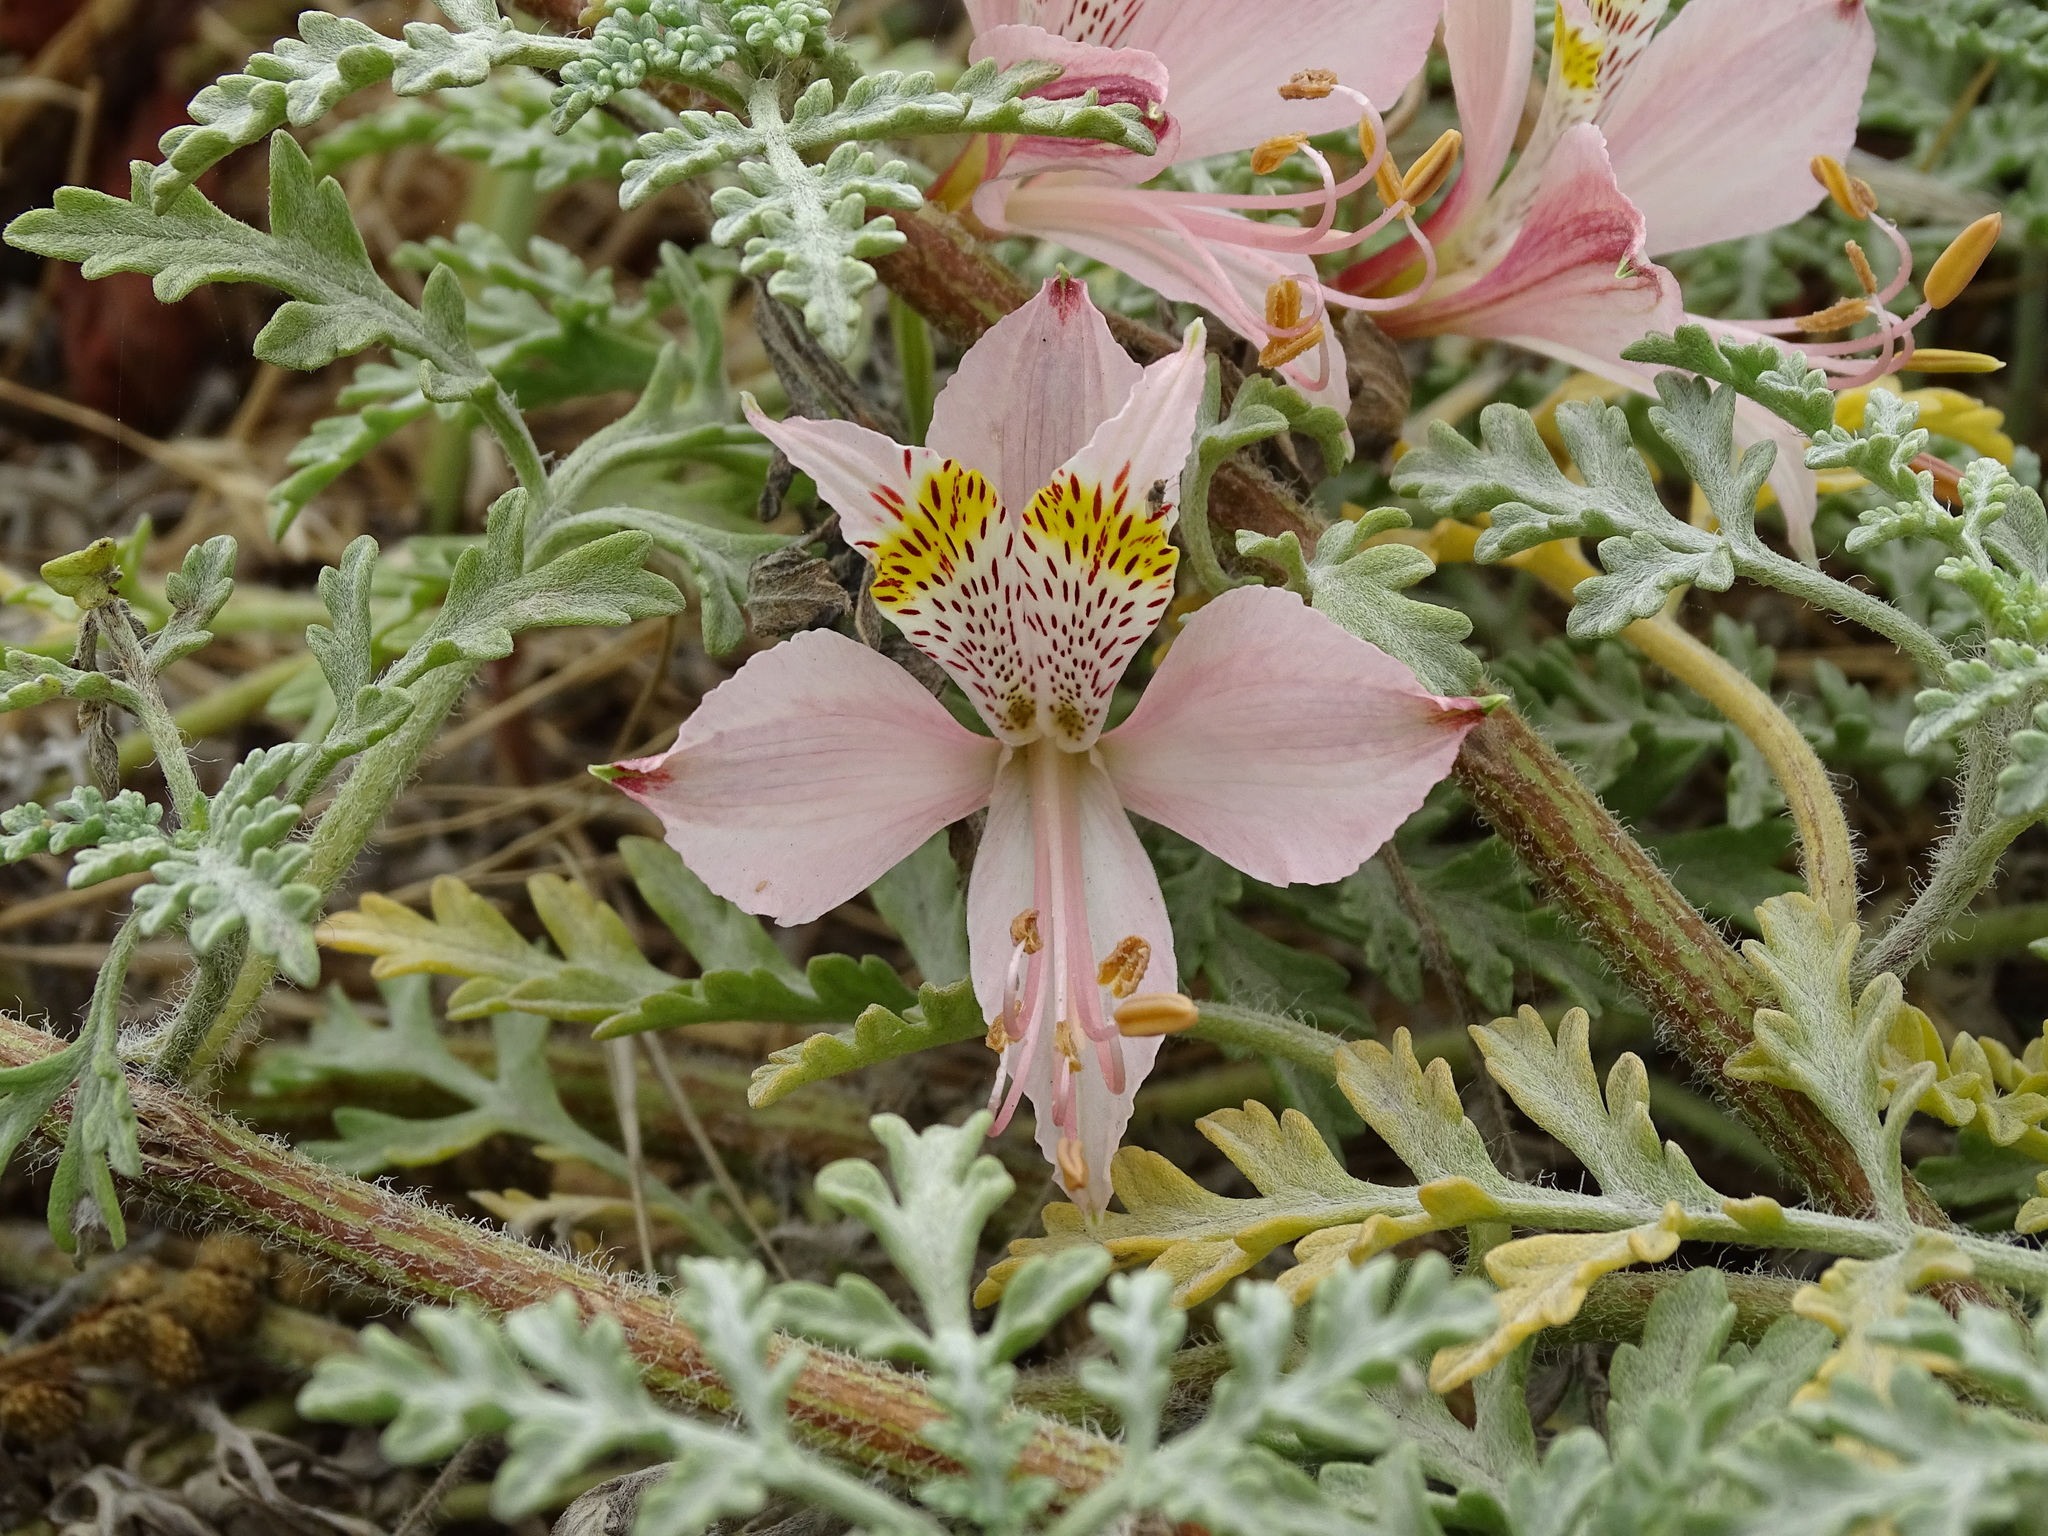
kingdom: Plantae
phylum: Tracheophyta
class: Liliopsida
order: Liliales
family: Alstroemeriaceae
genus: Alstroemeria
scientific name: Alstroemeria hookeri
